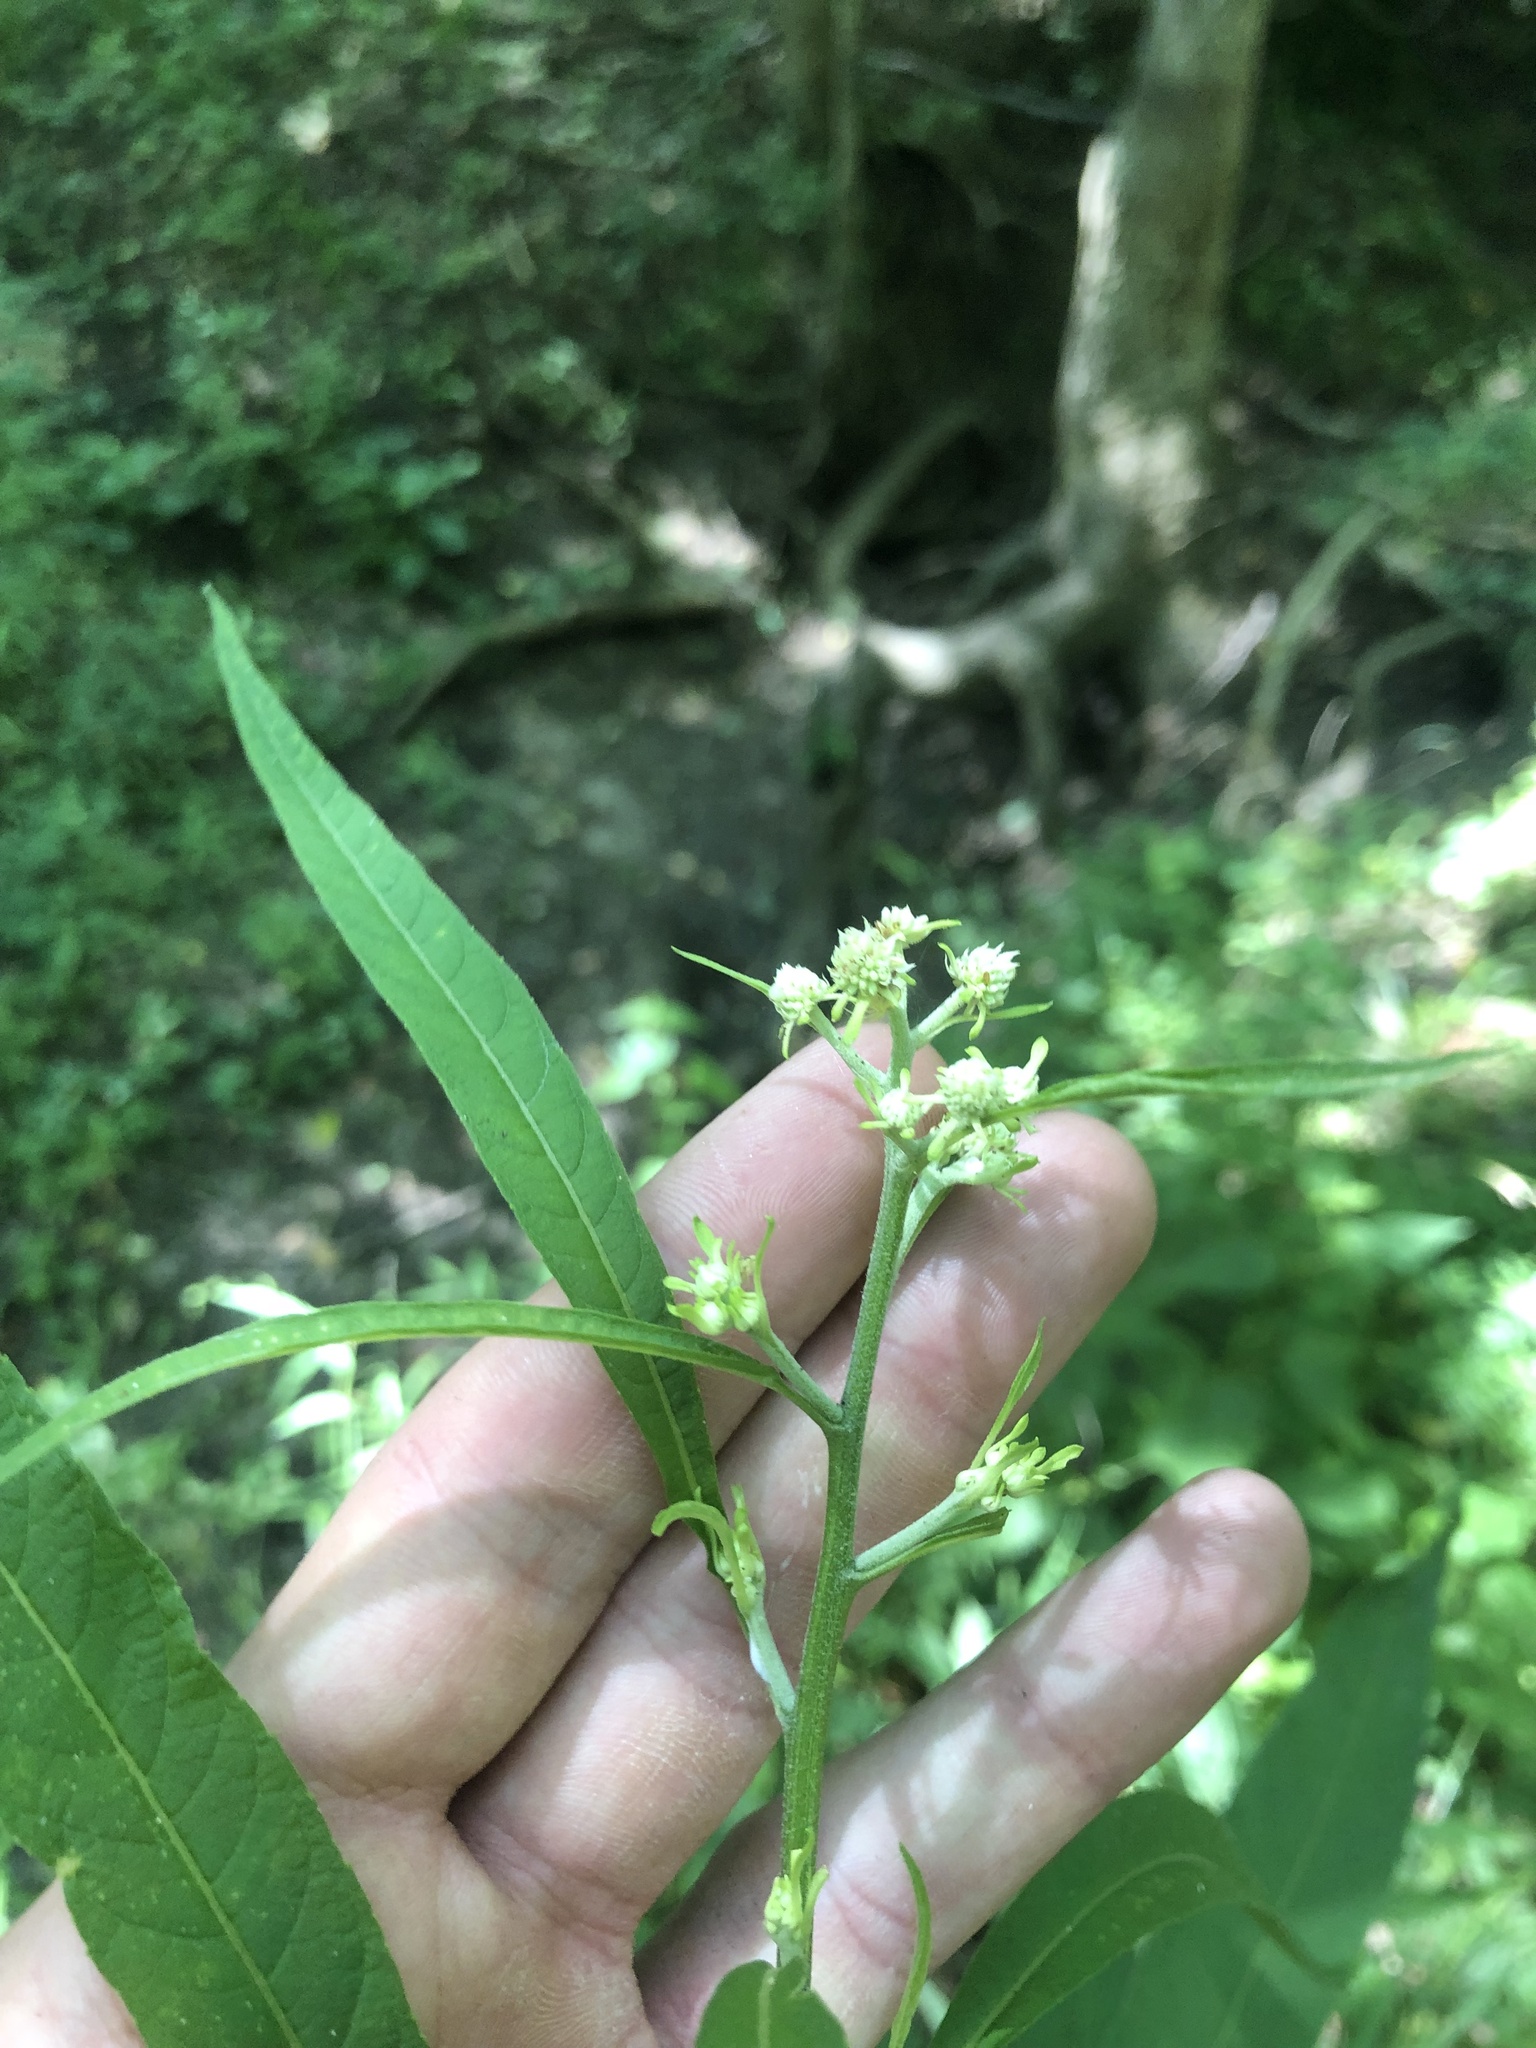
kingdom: Plantae
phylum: Tracheophyta
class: Magnoliopsida
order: Asterales
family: Asteraceae
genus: Verbesina
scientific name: Verbesina walteri
